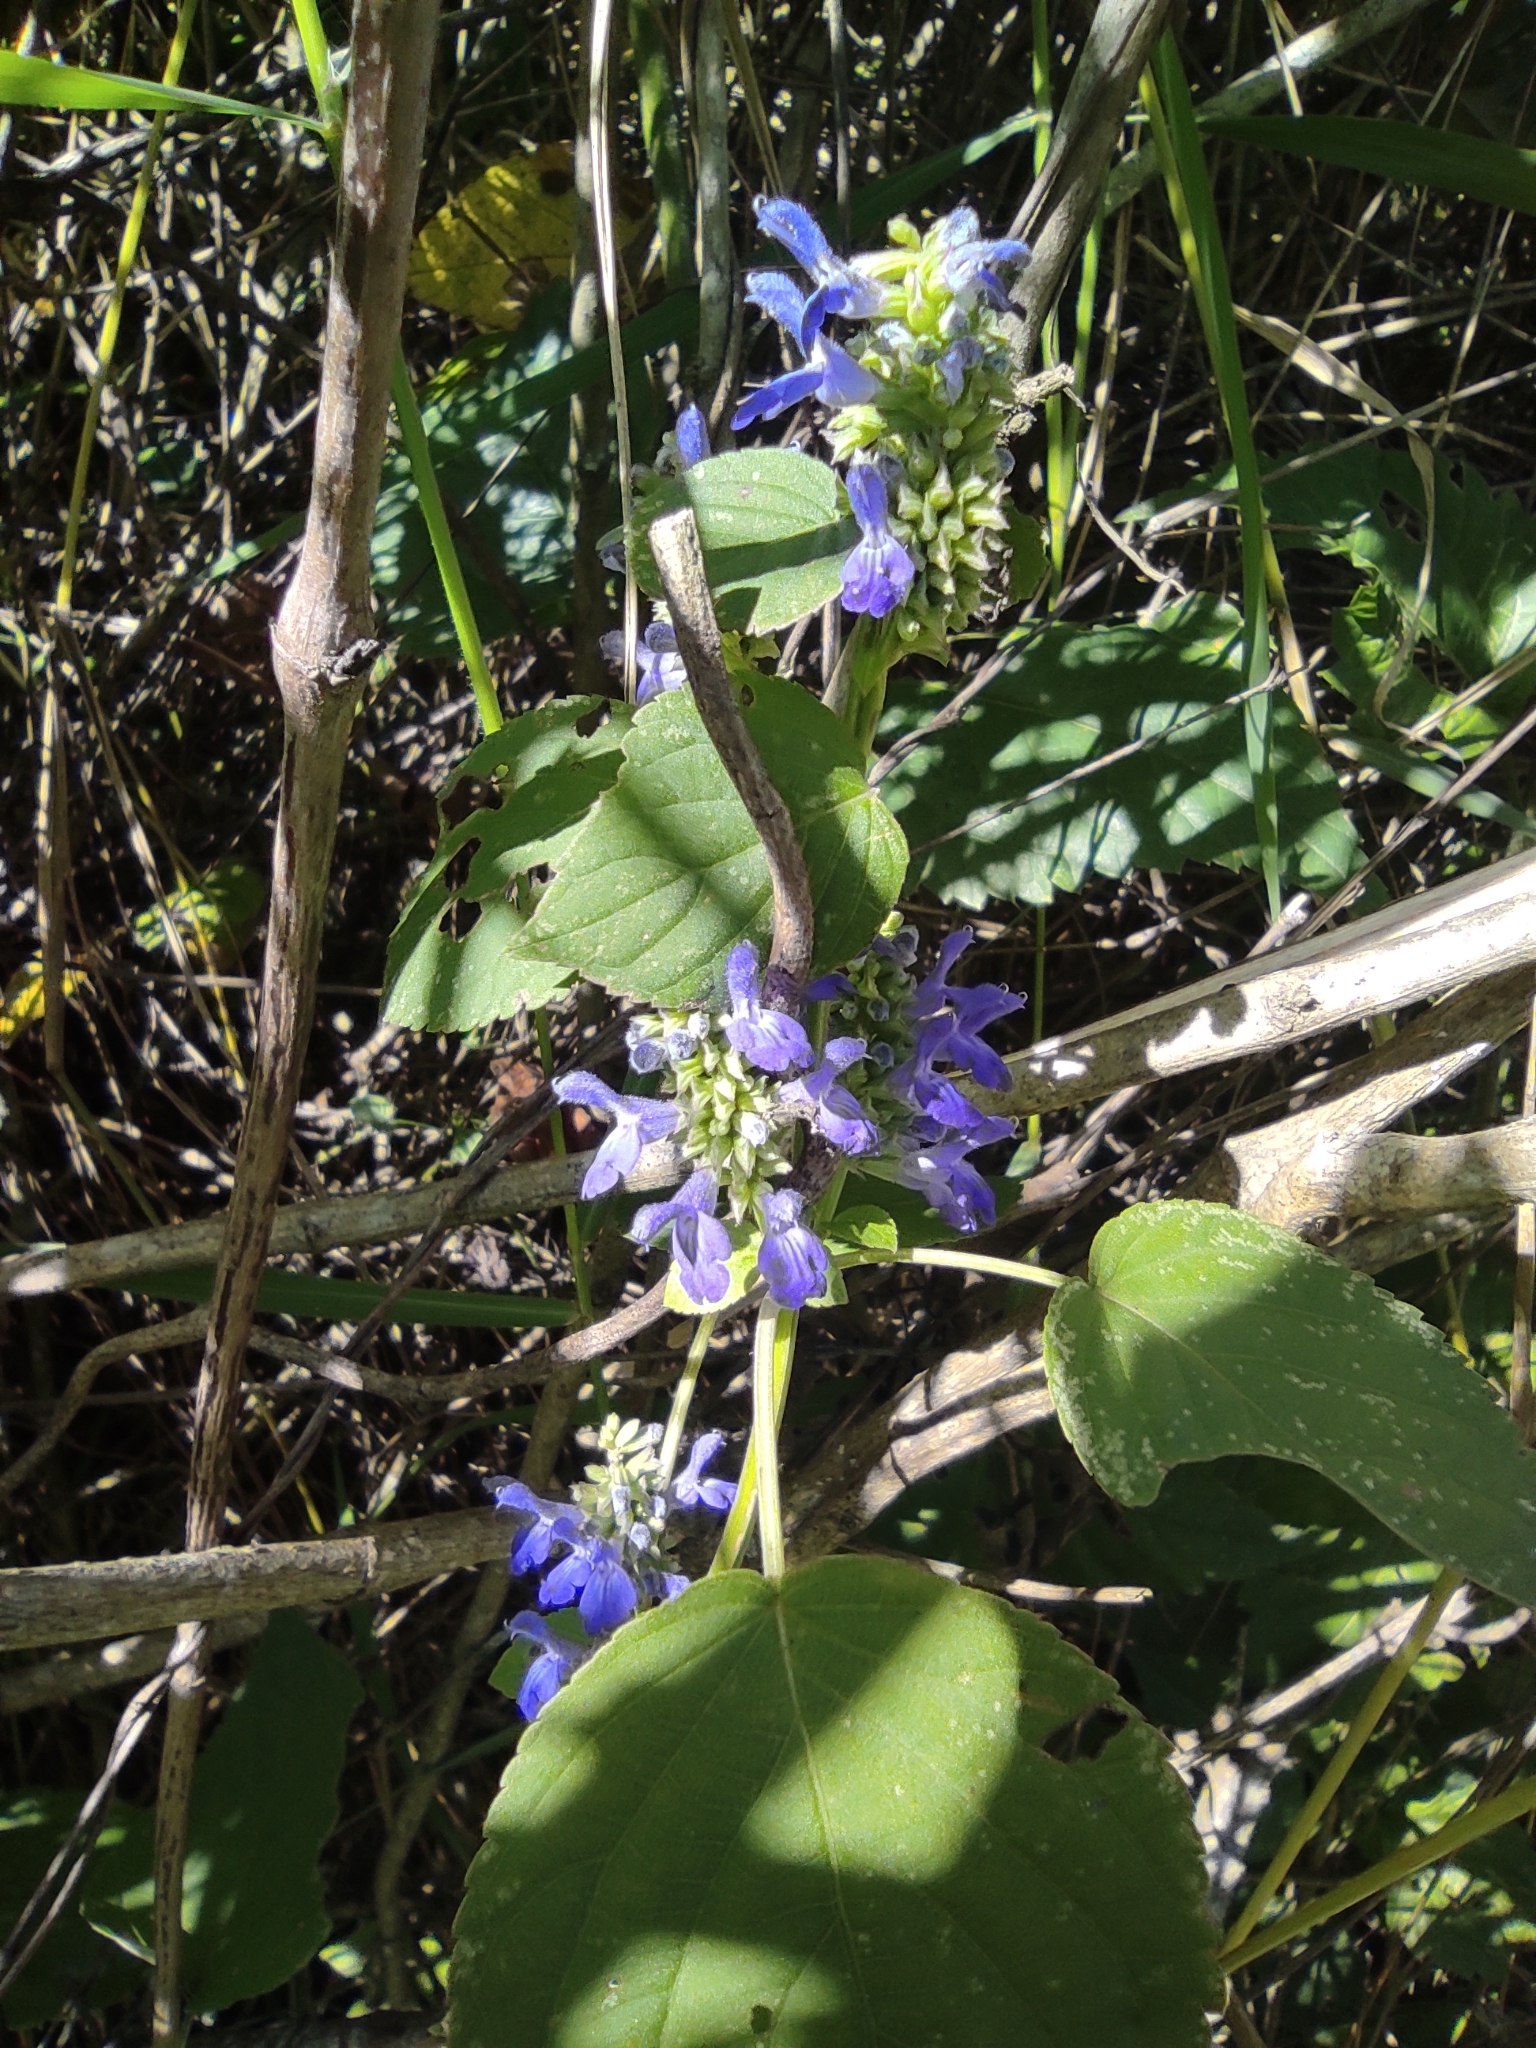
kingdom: Plantae
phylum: Tracheophyta
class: Magnoliopsida
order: Lamiales
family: Lamiaceae
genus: Salvia
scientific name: Salvia polystachia
